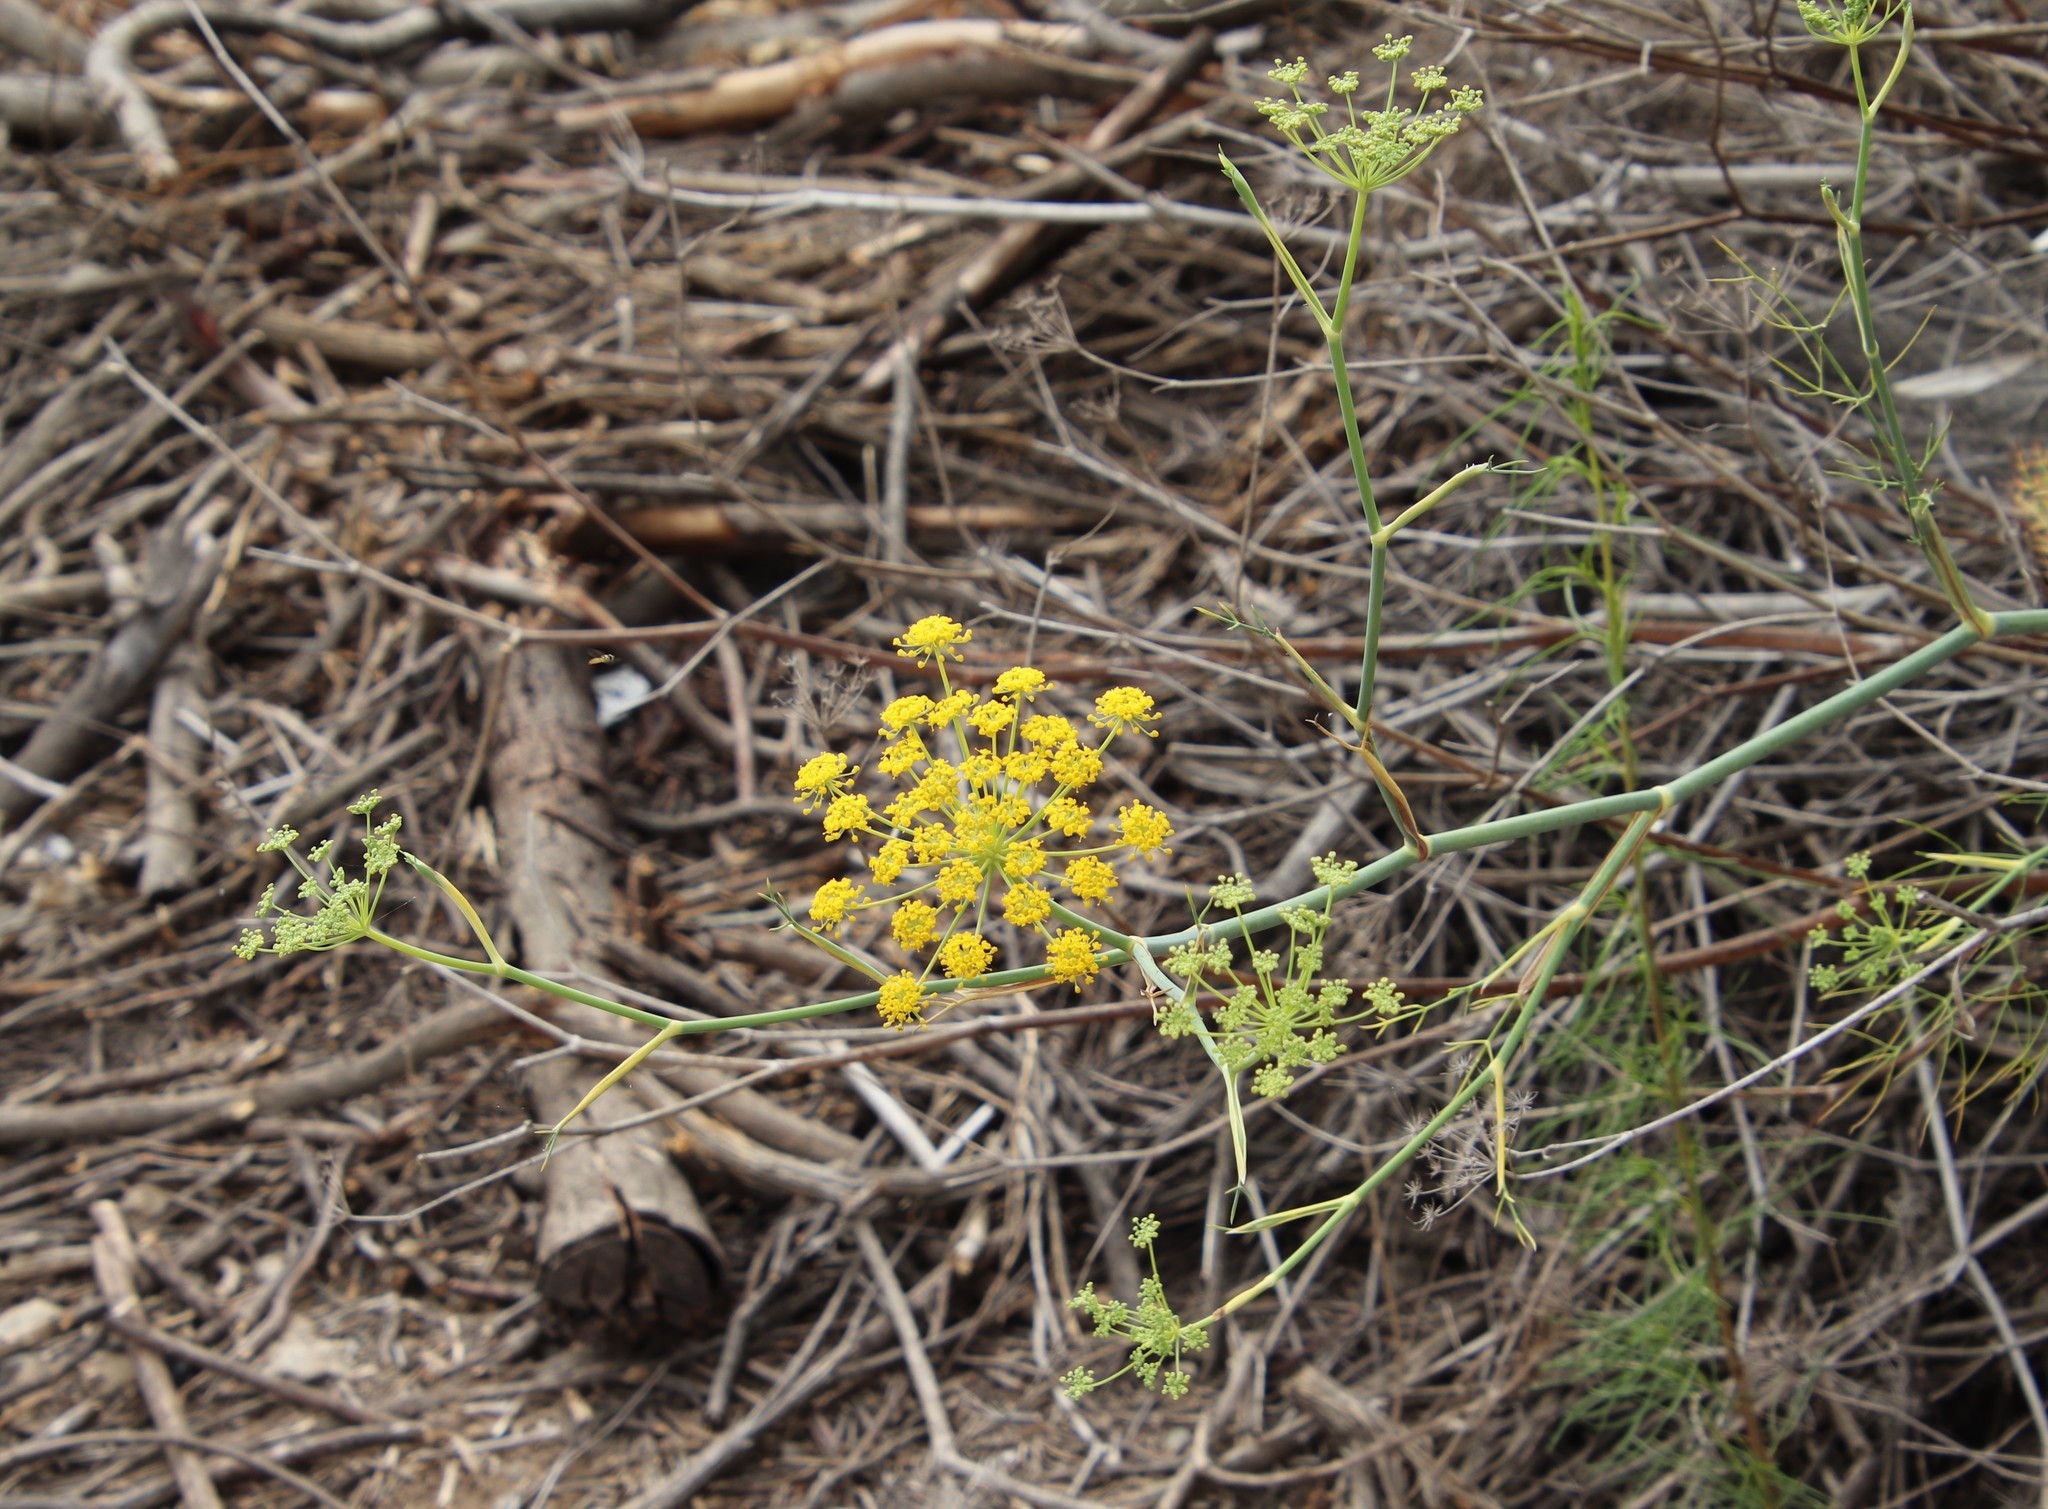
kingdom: Plantae
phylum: Tracheophyta
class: Magnoliopsida
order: Apiales
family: Apiaceae
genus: Foeniculum
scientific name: Foeniculum vulgare
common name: Fennel
